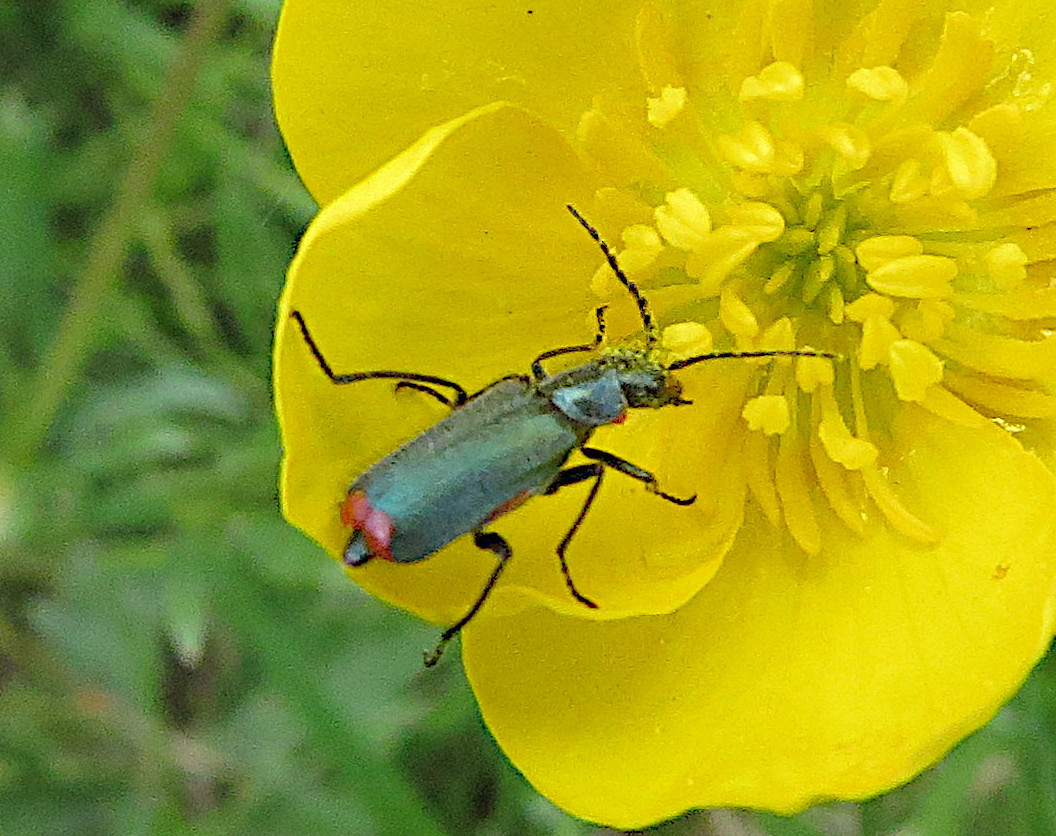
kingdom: Animalia
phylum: Arthropoda
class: Insecta
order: Coleoptera
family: Melyridae
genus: Malachius
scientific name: Malachius bipustulatus
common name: Malachite beetle
